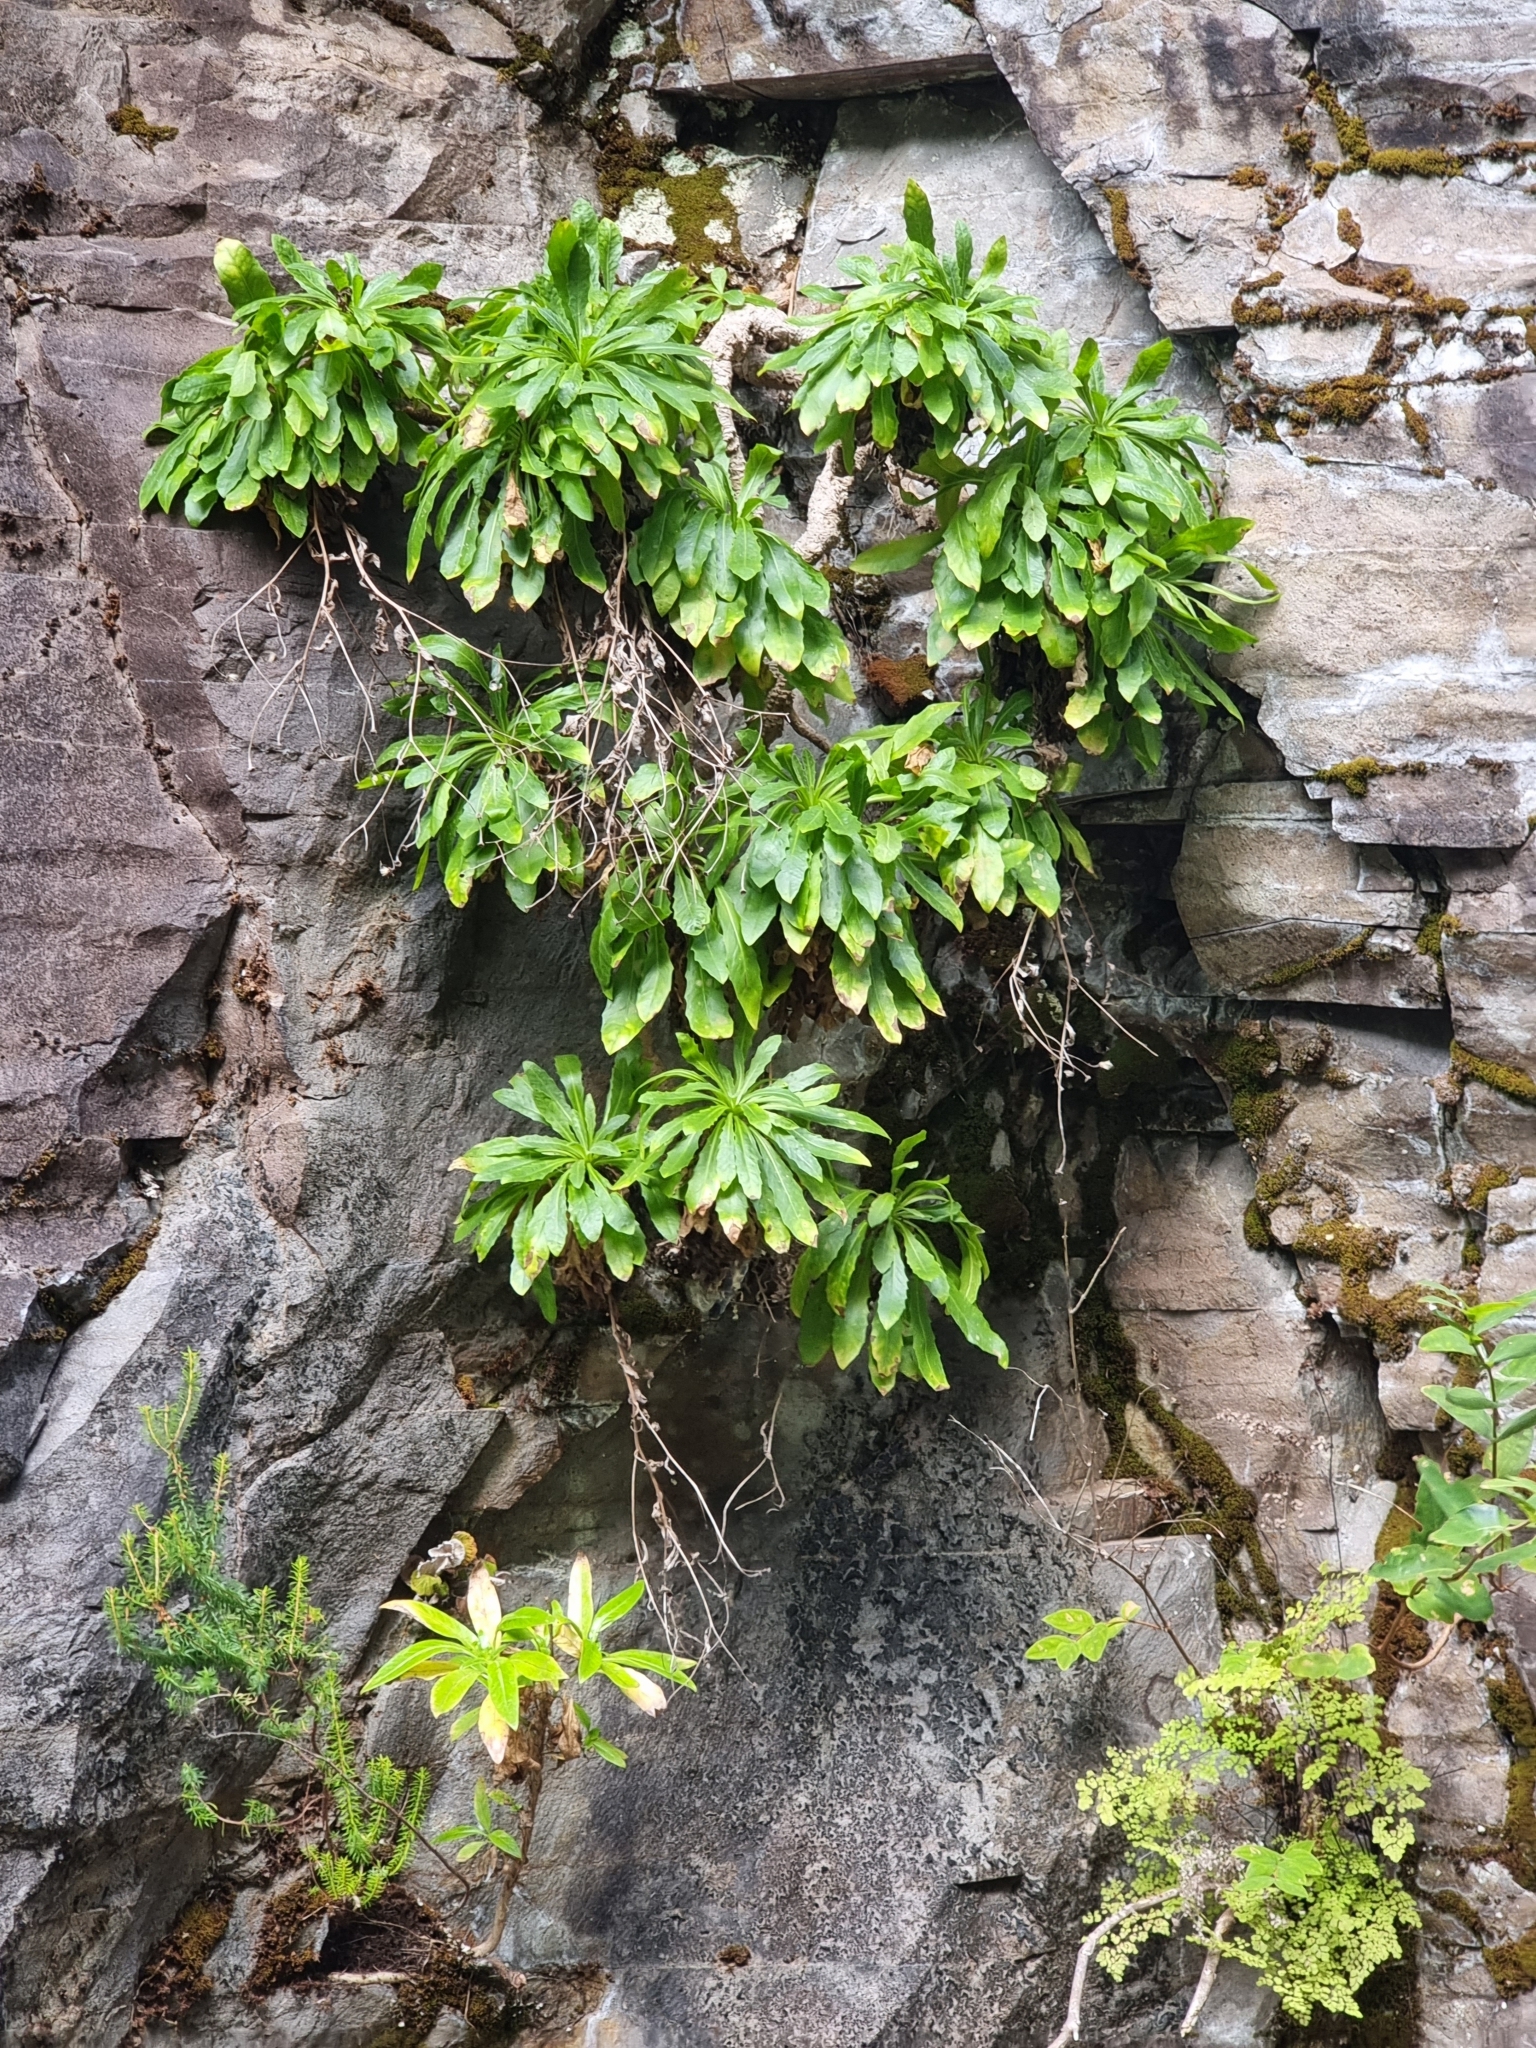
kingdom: Plantae
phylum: Tracheophyta
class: Magnoliopsida
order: Asterales
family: Asteraceae
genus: Tolpis
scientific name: Tolpis macrorhiza
